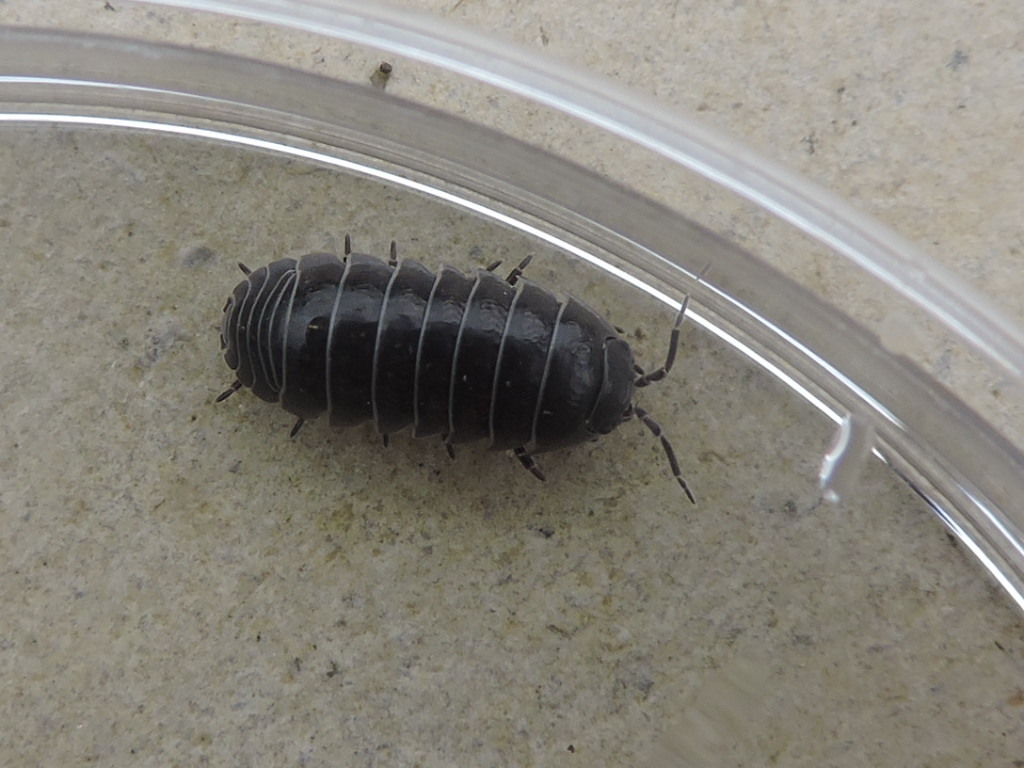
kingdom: Animalia
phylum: Arthropoda
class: Malacostraca
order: Isopoda
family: Armadillidiidae
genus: Armadillidium
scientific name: Armadillidium vulgare
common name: Common pill woodlouse
